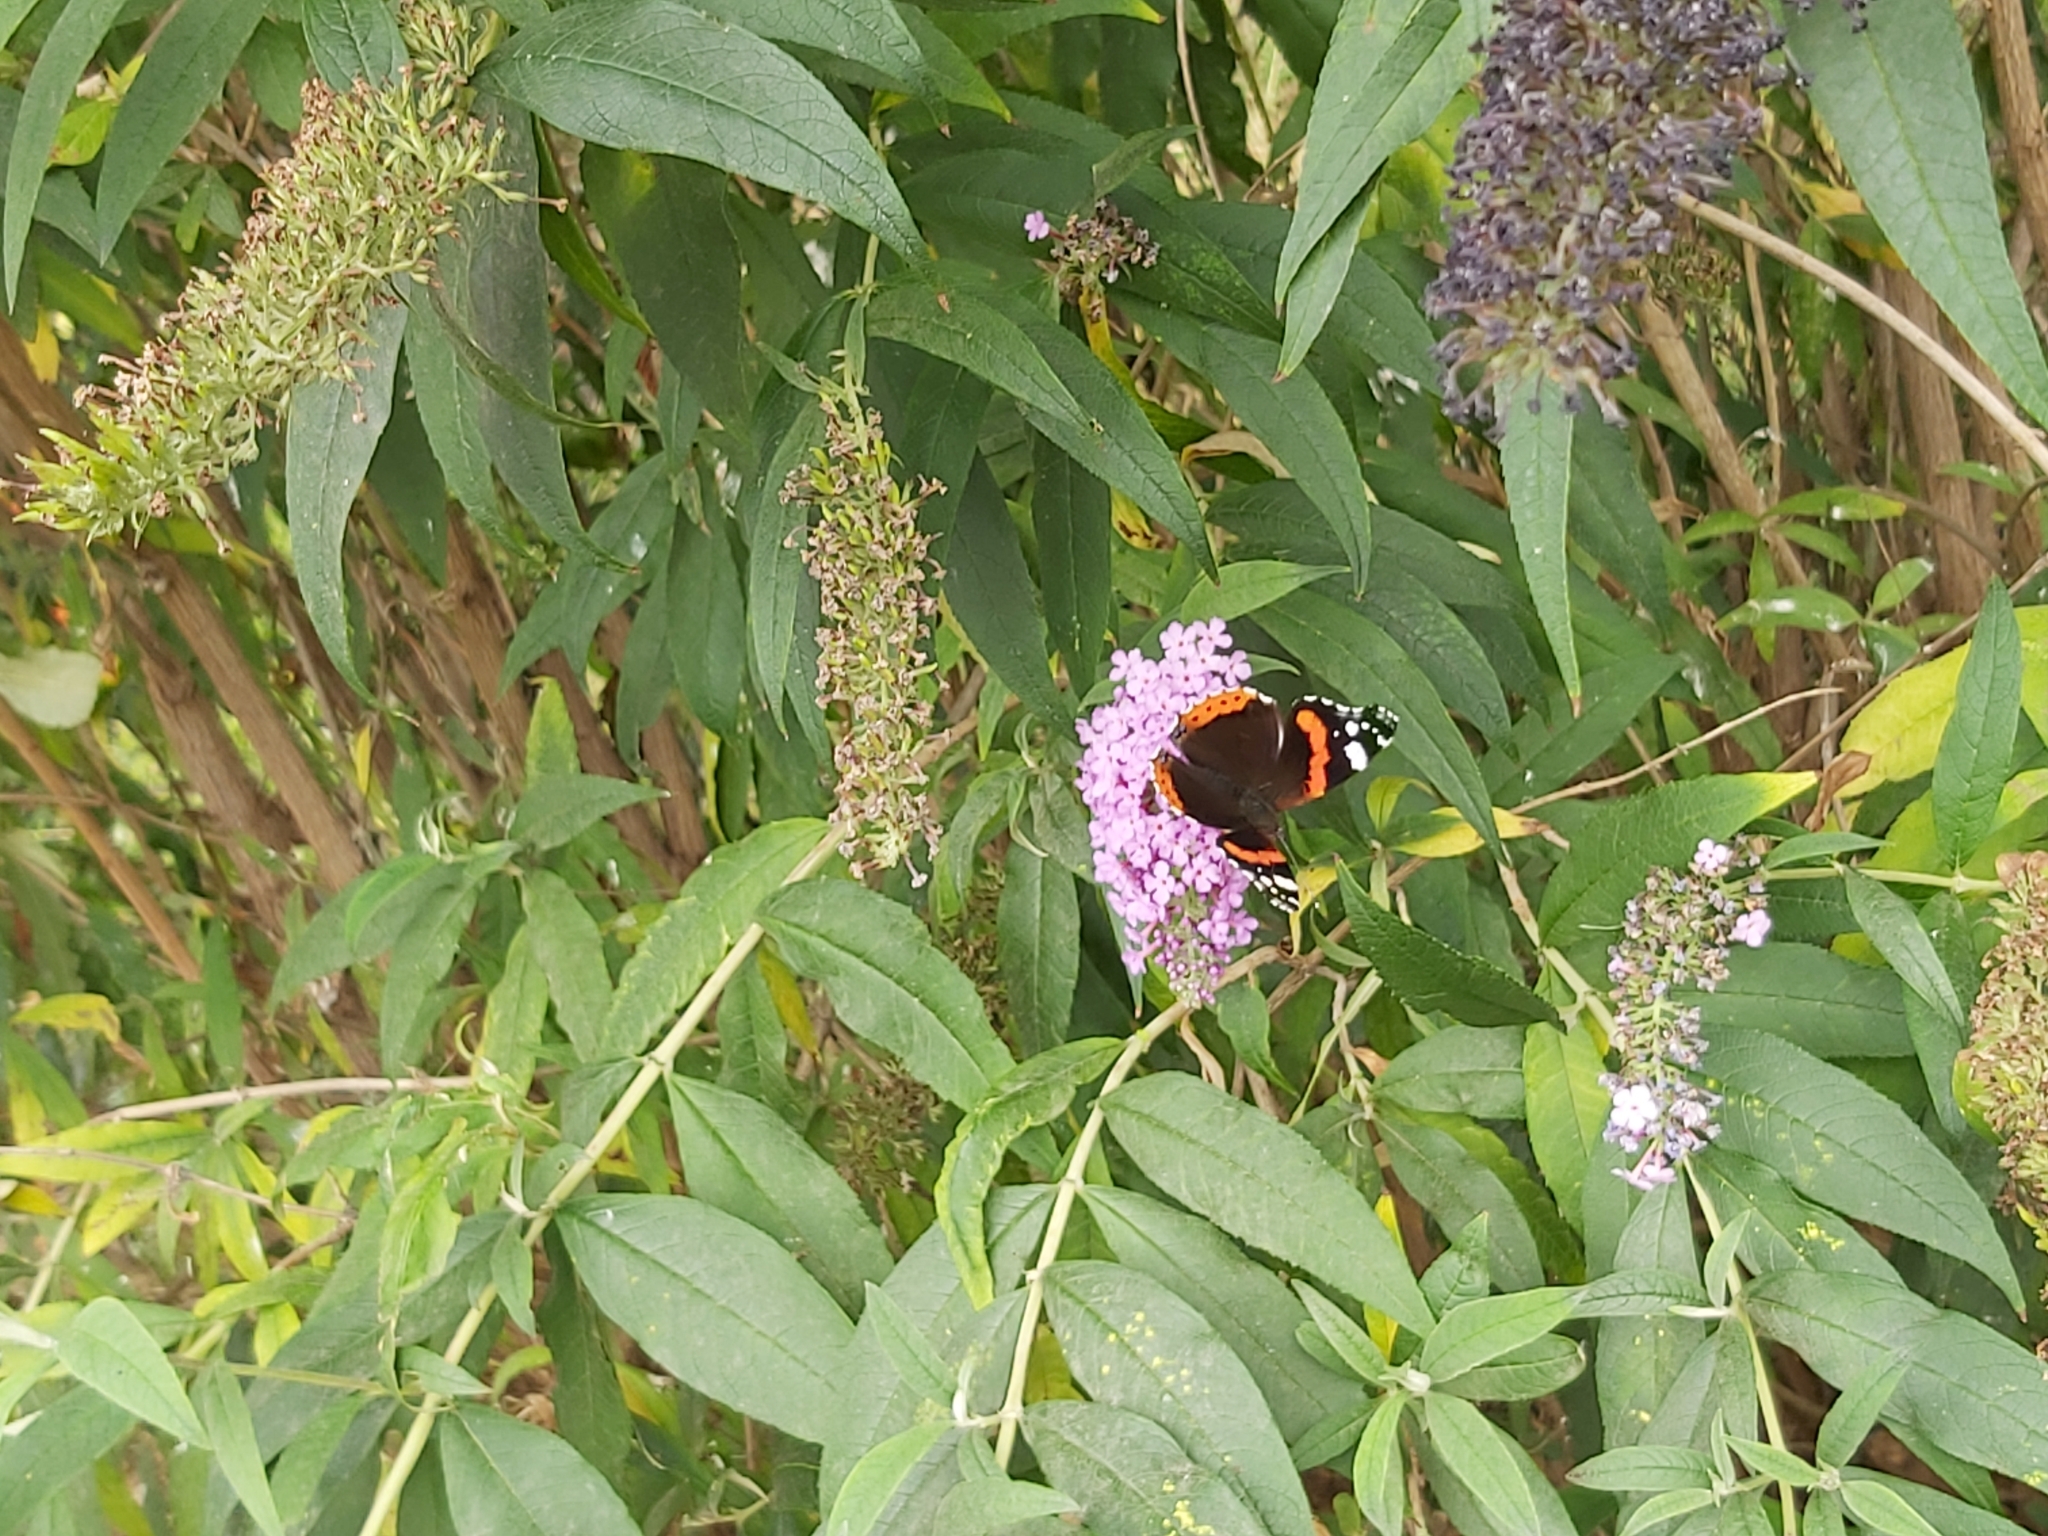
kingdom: Animalia
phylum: Arthropoda
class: Insecta
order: Lepidoptera
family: Nymphalidae
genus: Vanessa
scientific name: Vanessa atalanta
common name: Red admiral
